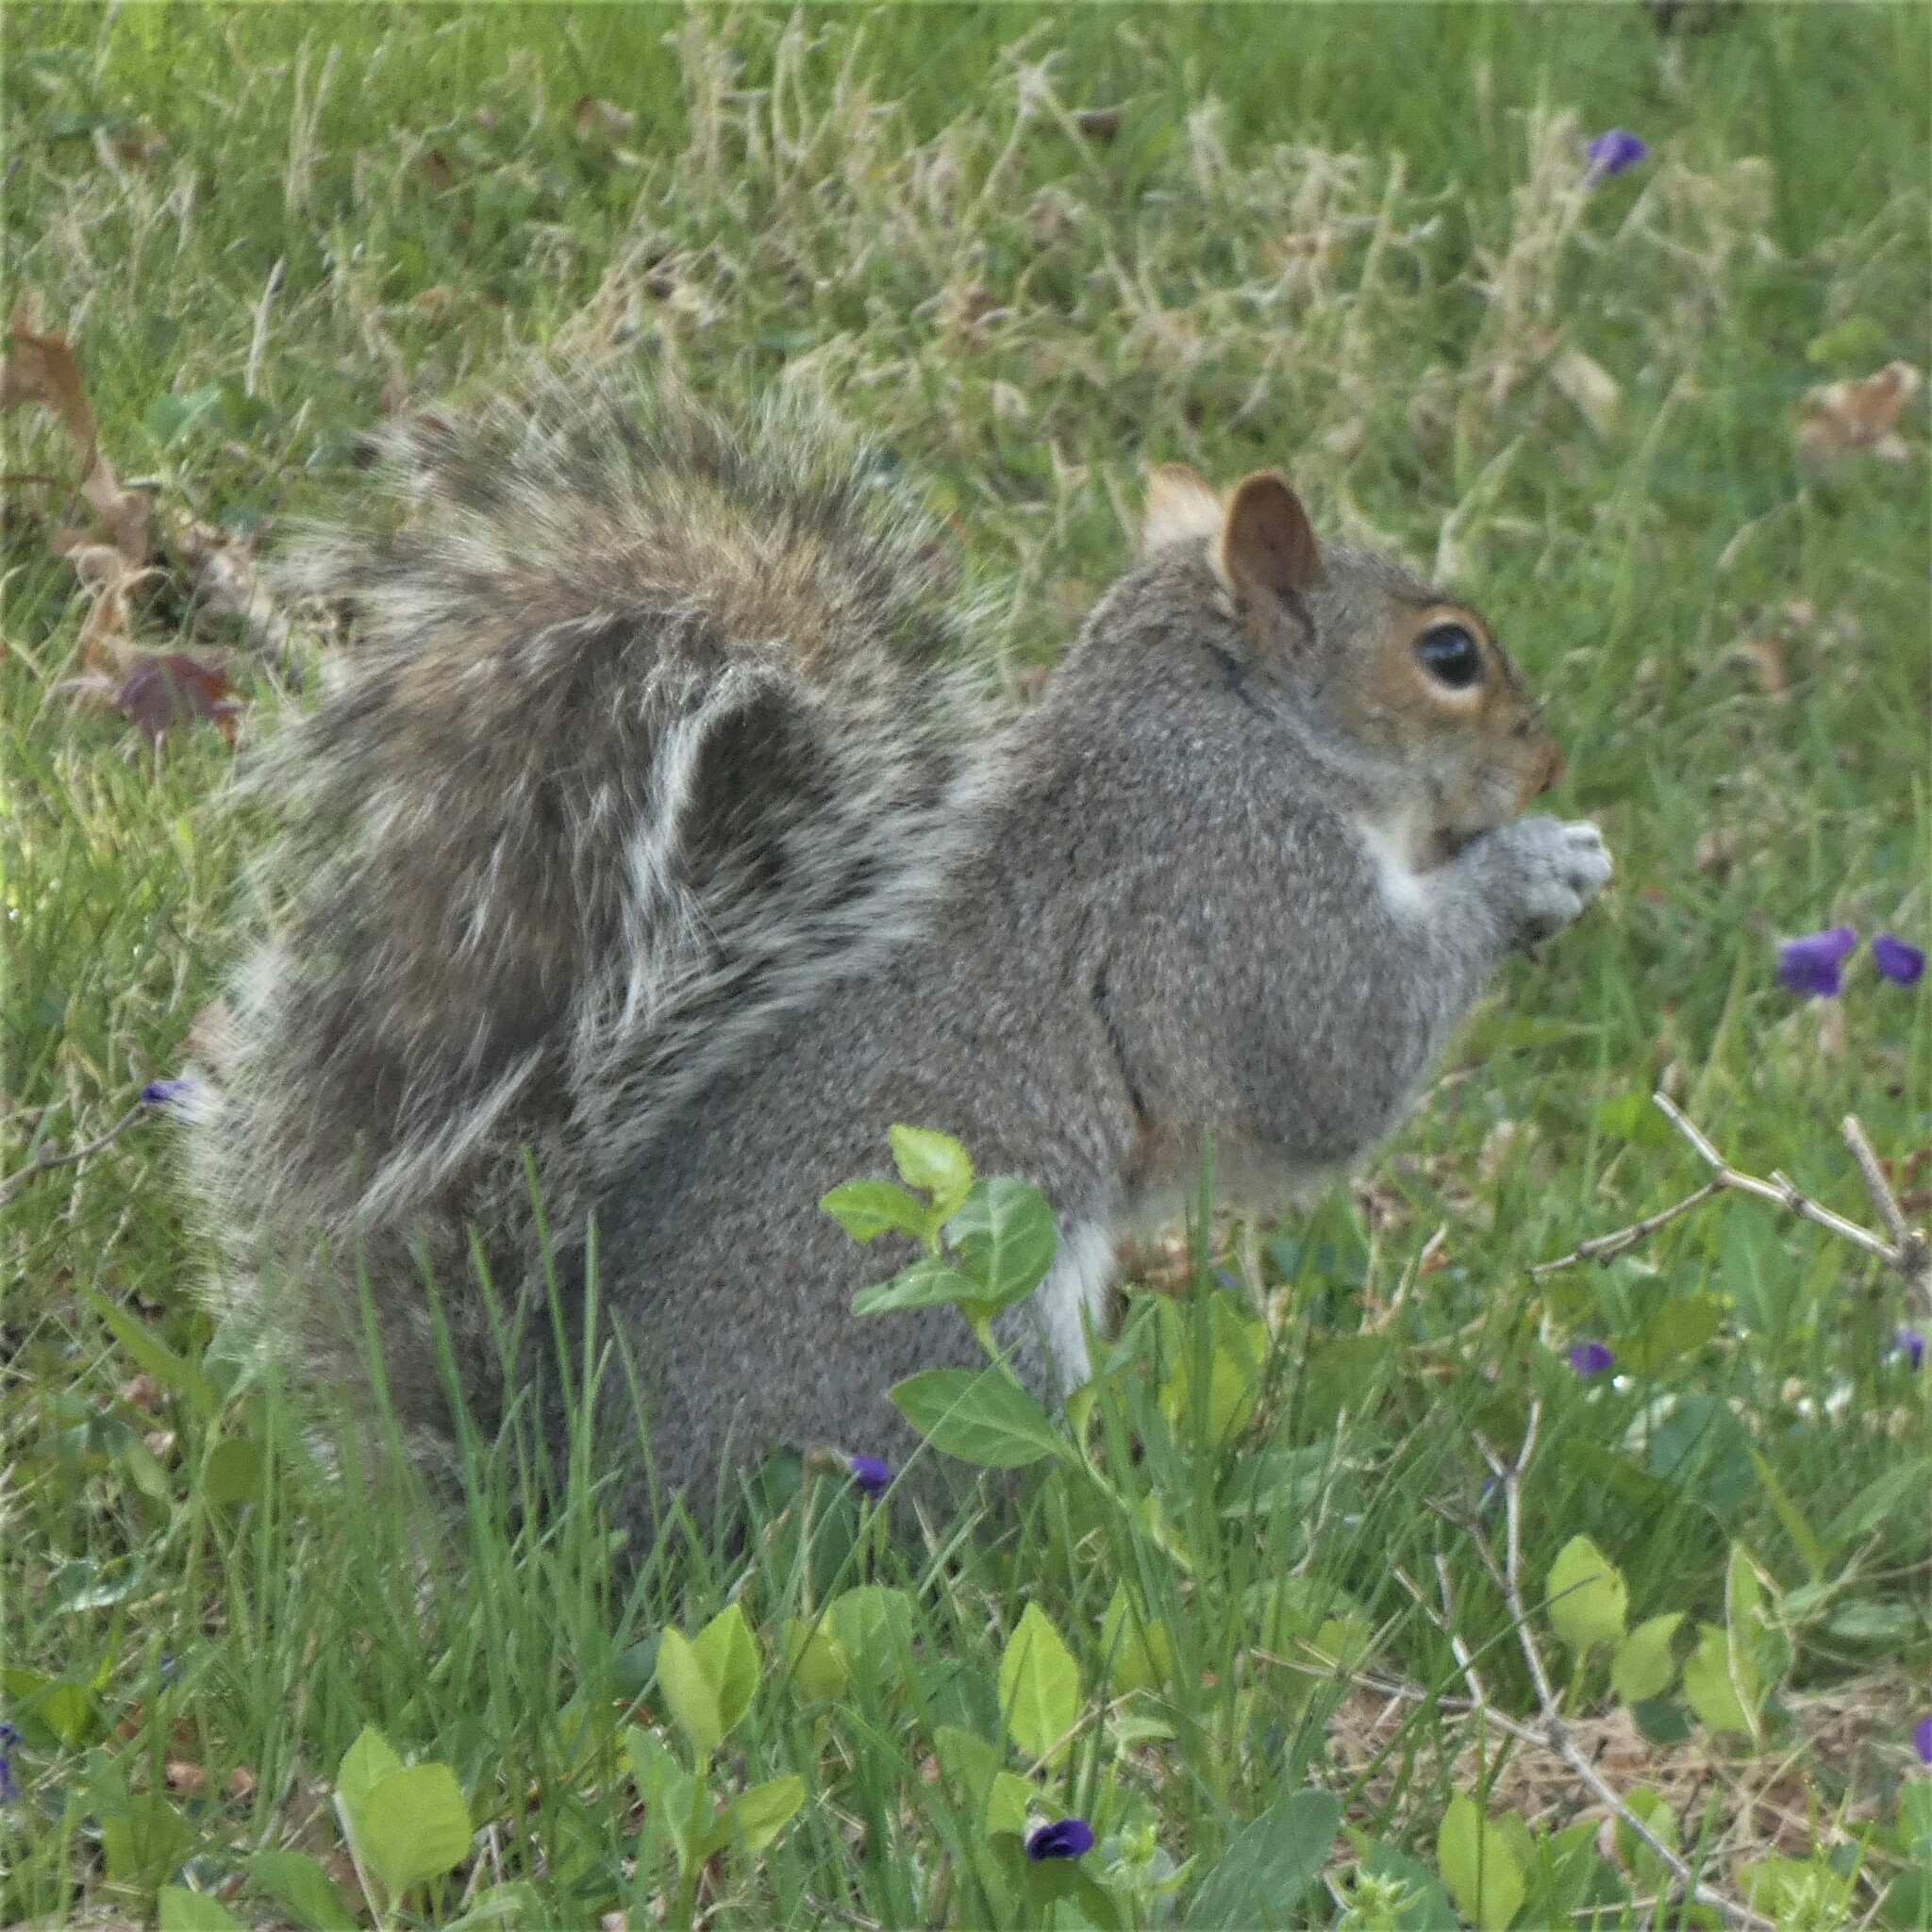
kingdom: Animalia
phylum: Chordata
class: Mammalia
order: Rodentia
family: Sciuridae
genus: Sciurus
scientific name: Sciurus carolinensis
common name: Eastern gray squirrel
